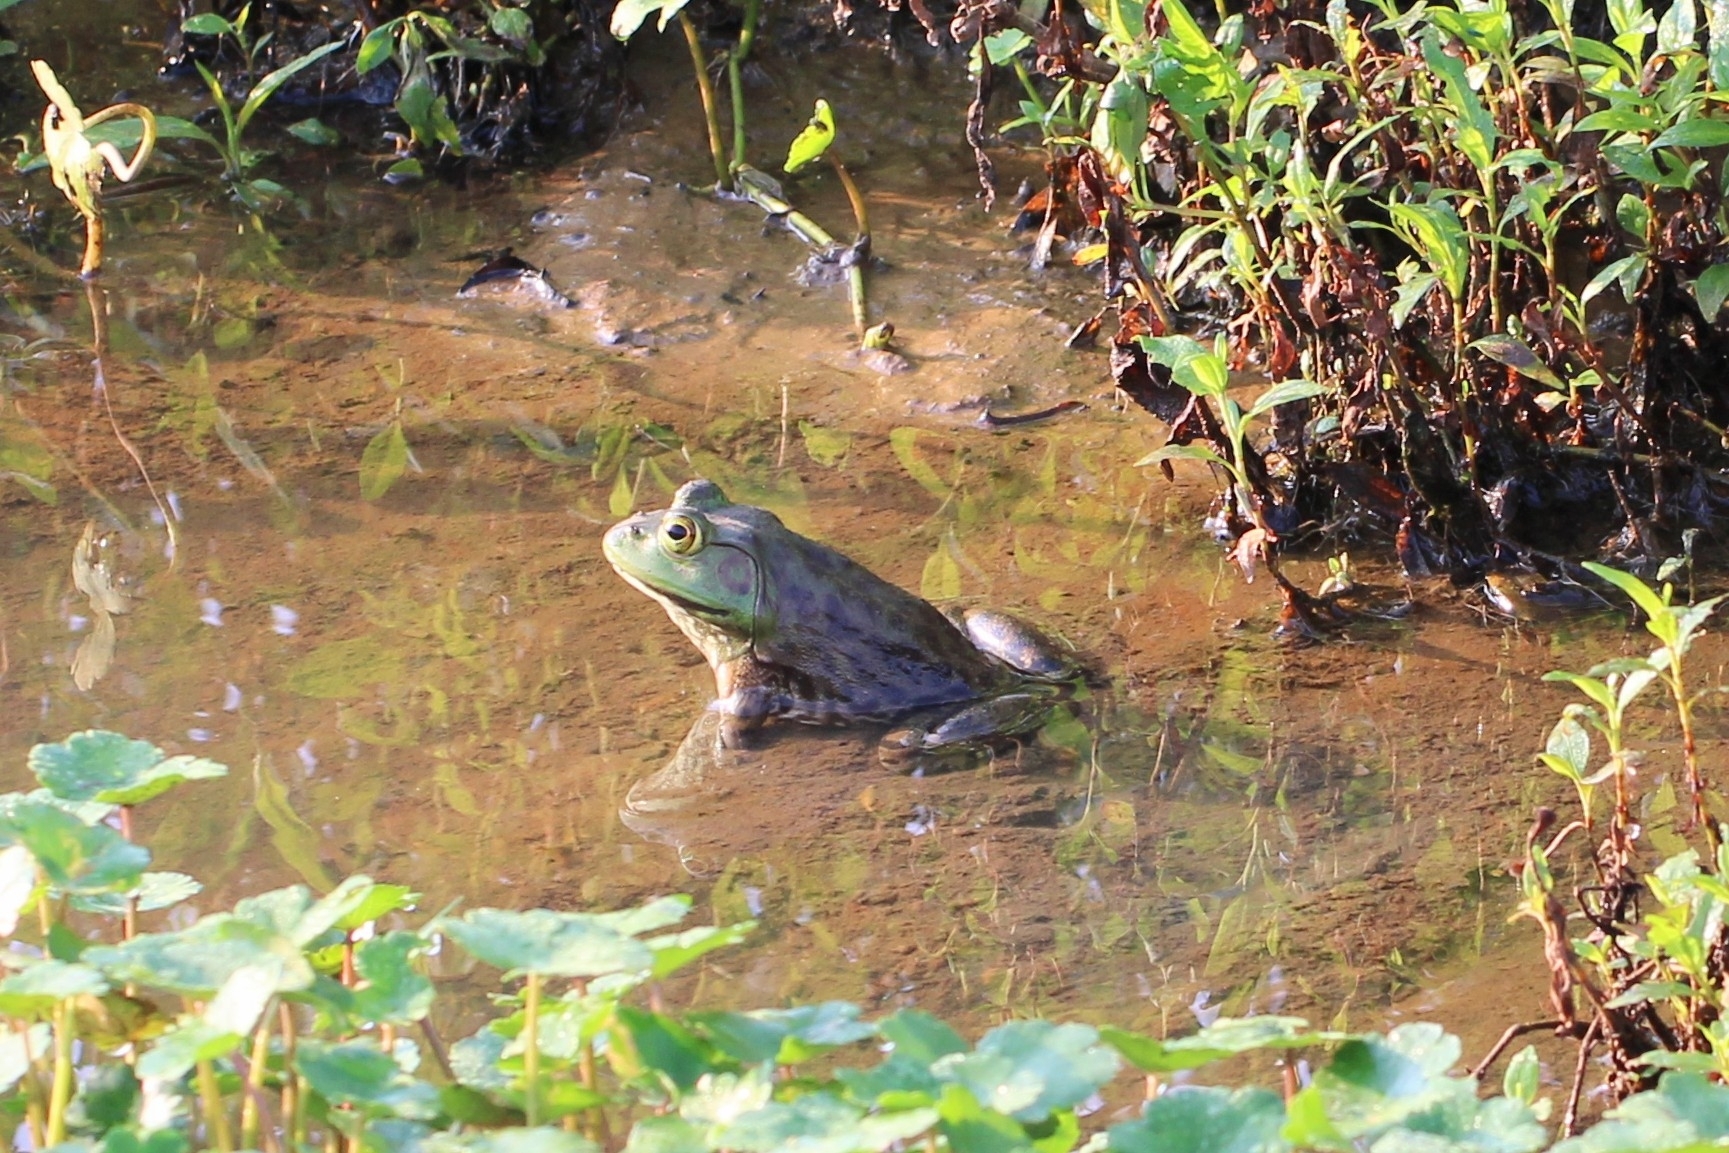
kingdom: Animalia
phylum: Chordata
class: Amphibia
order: Anura
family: Ranidae
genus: Lithobates
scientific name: Lithobates catesbeianus
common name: American bullfrog
